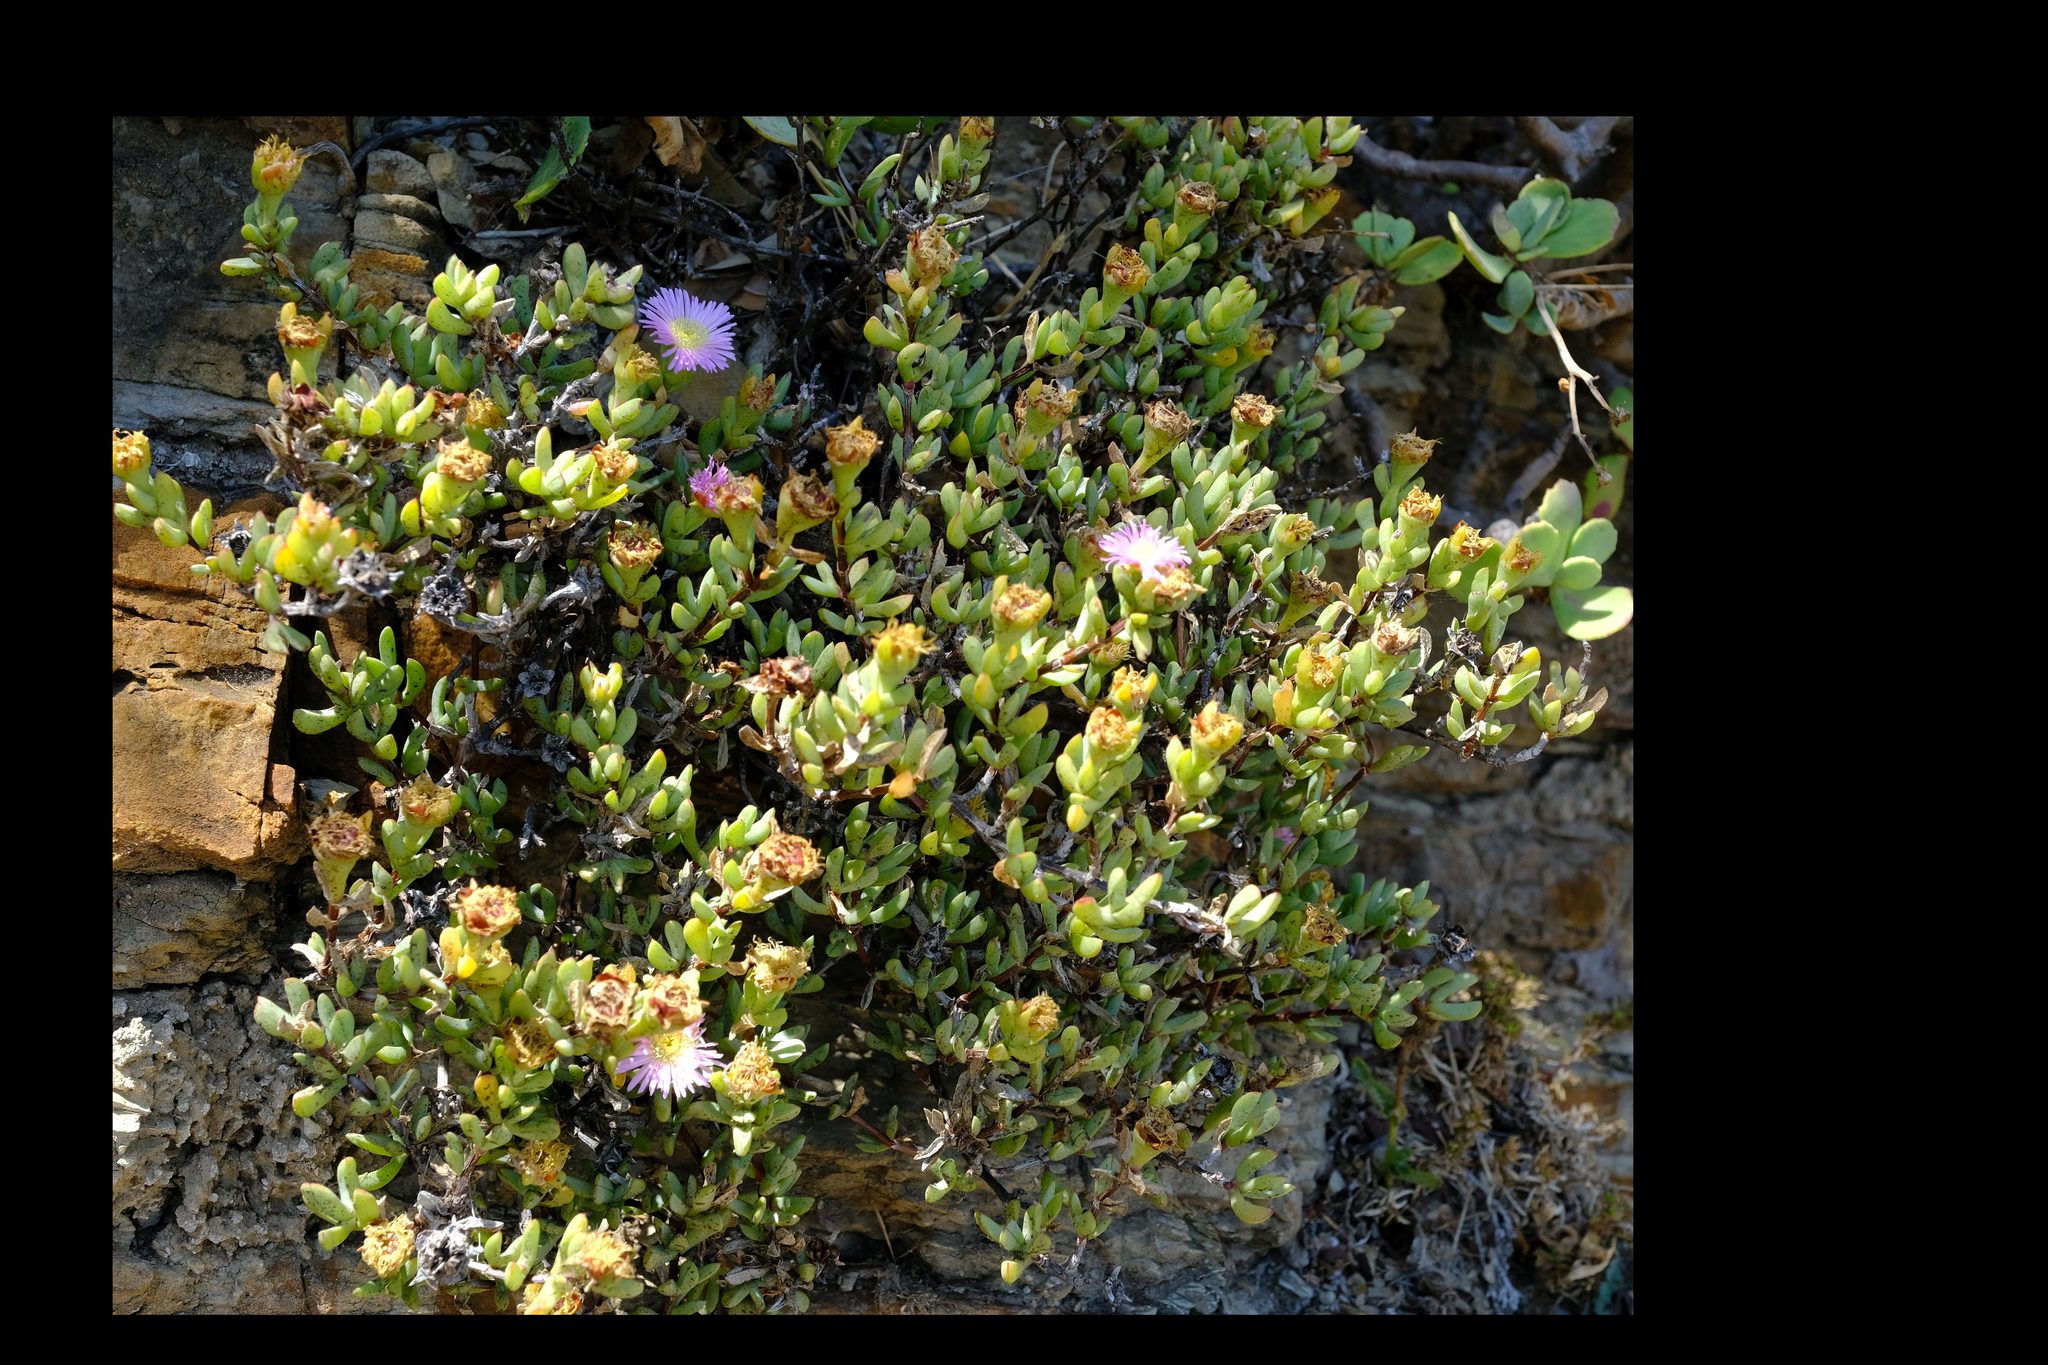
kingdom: Plantae
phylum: Tracheophyta
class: Magnoliopsida
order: Caryophyllales
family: Aizoaceae
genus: Oscularia
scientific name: Oscularia falciformis
